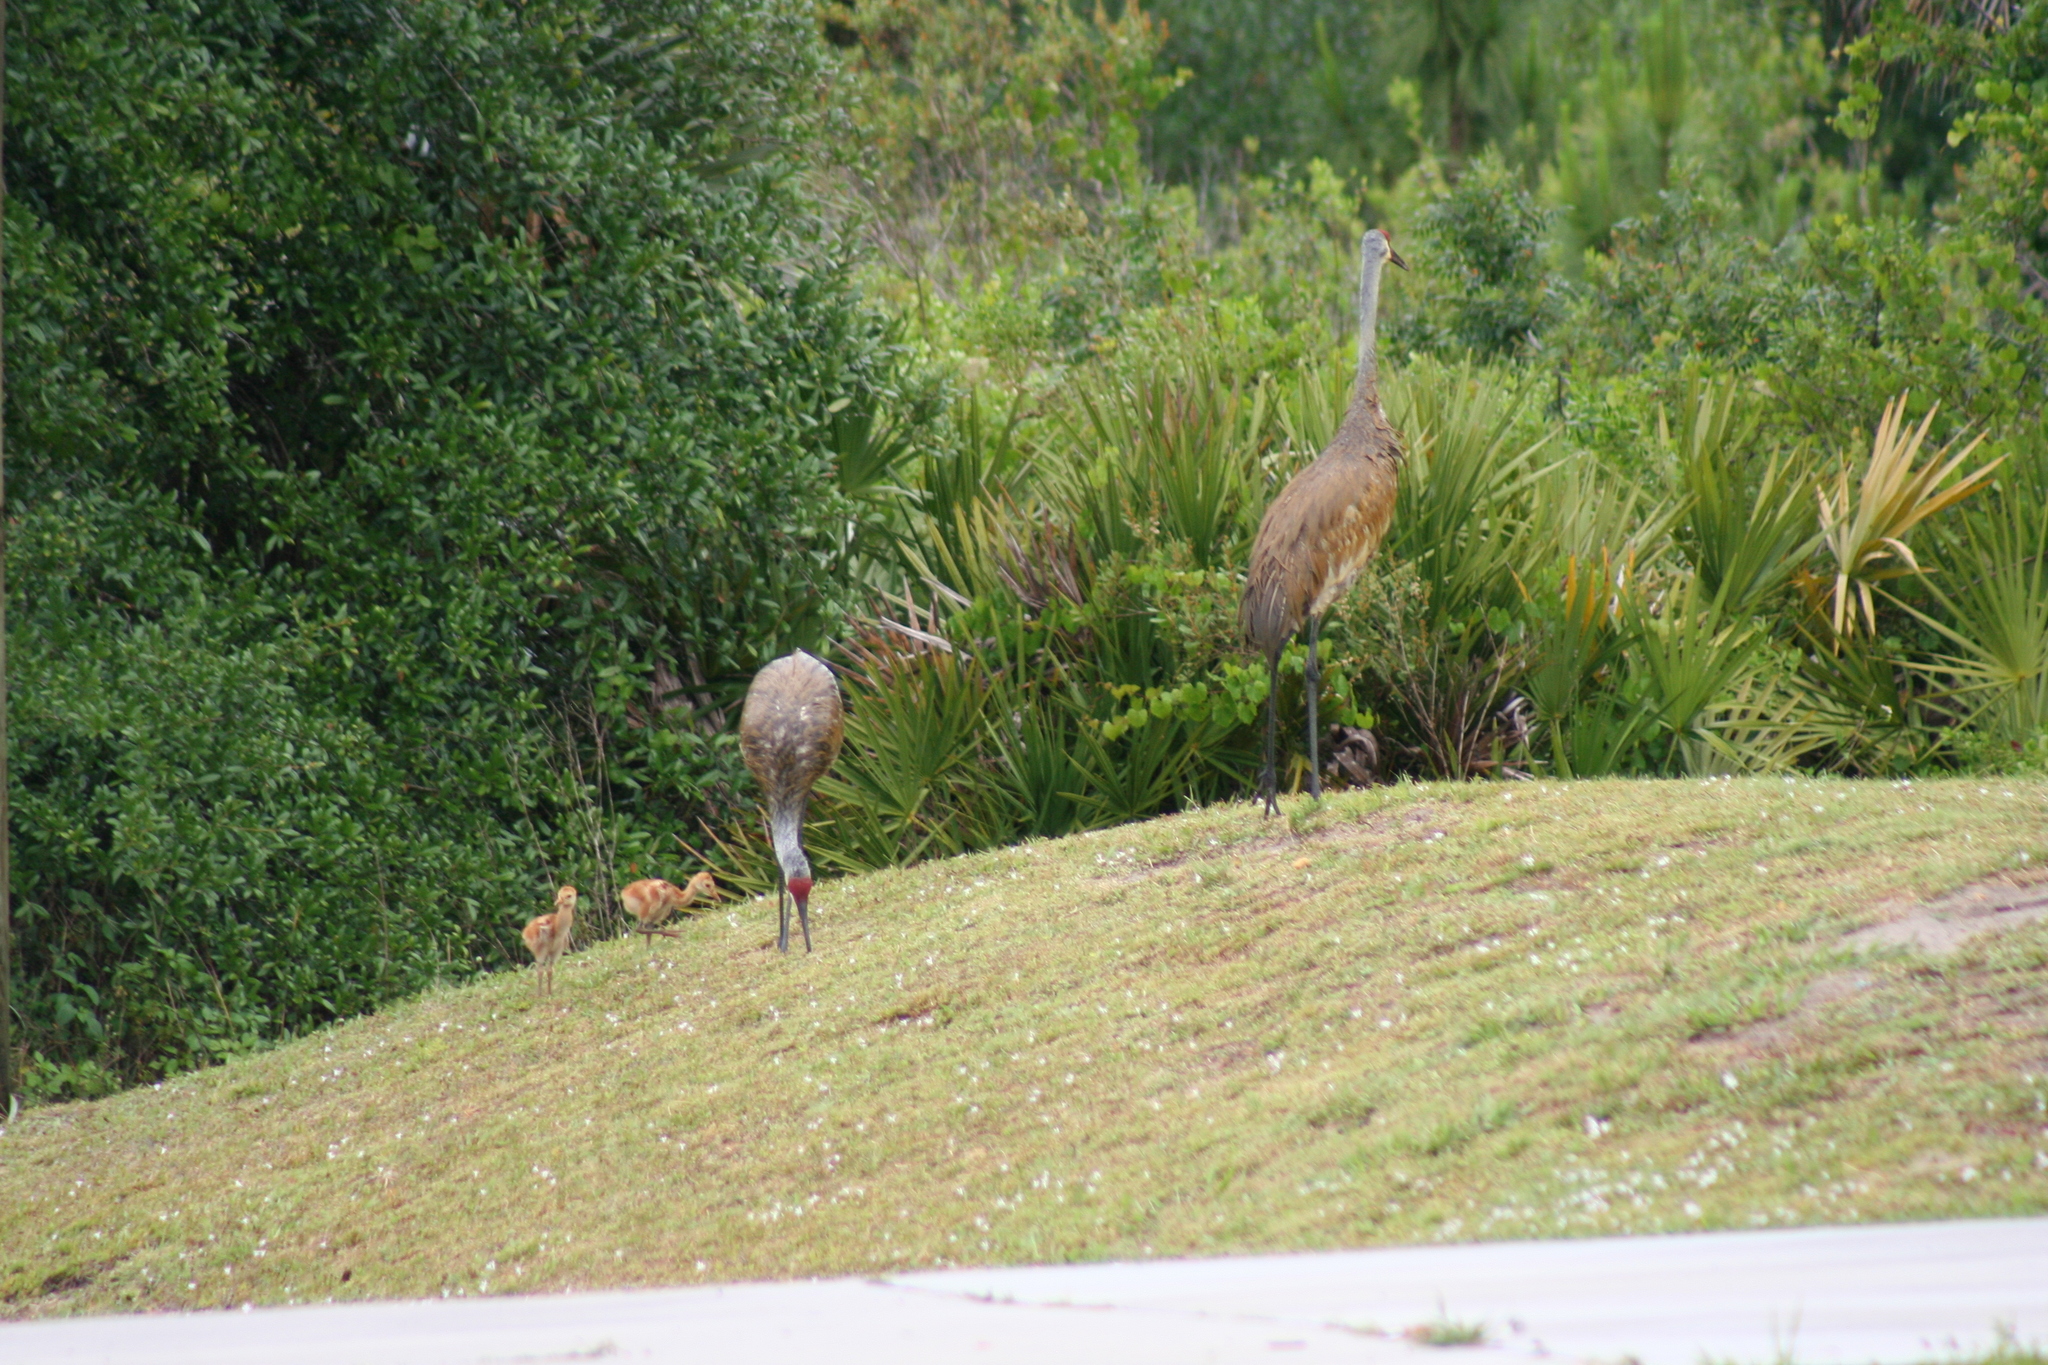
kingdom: Animalia
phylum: Chordata
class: Aves
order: Gruiformes
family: Gruidae
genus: Grus
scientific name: Grus canadensis
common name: Sandhill crane
